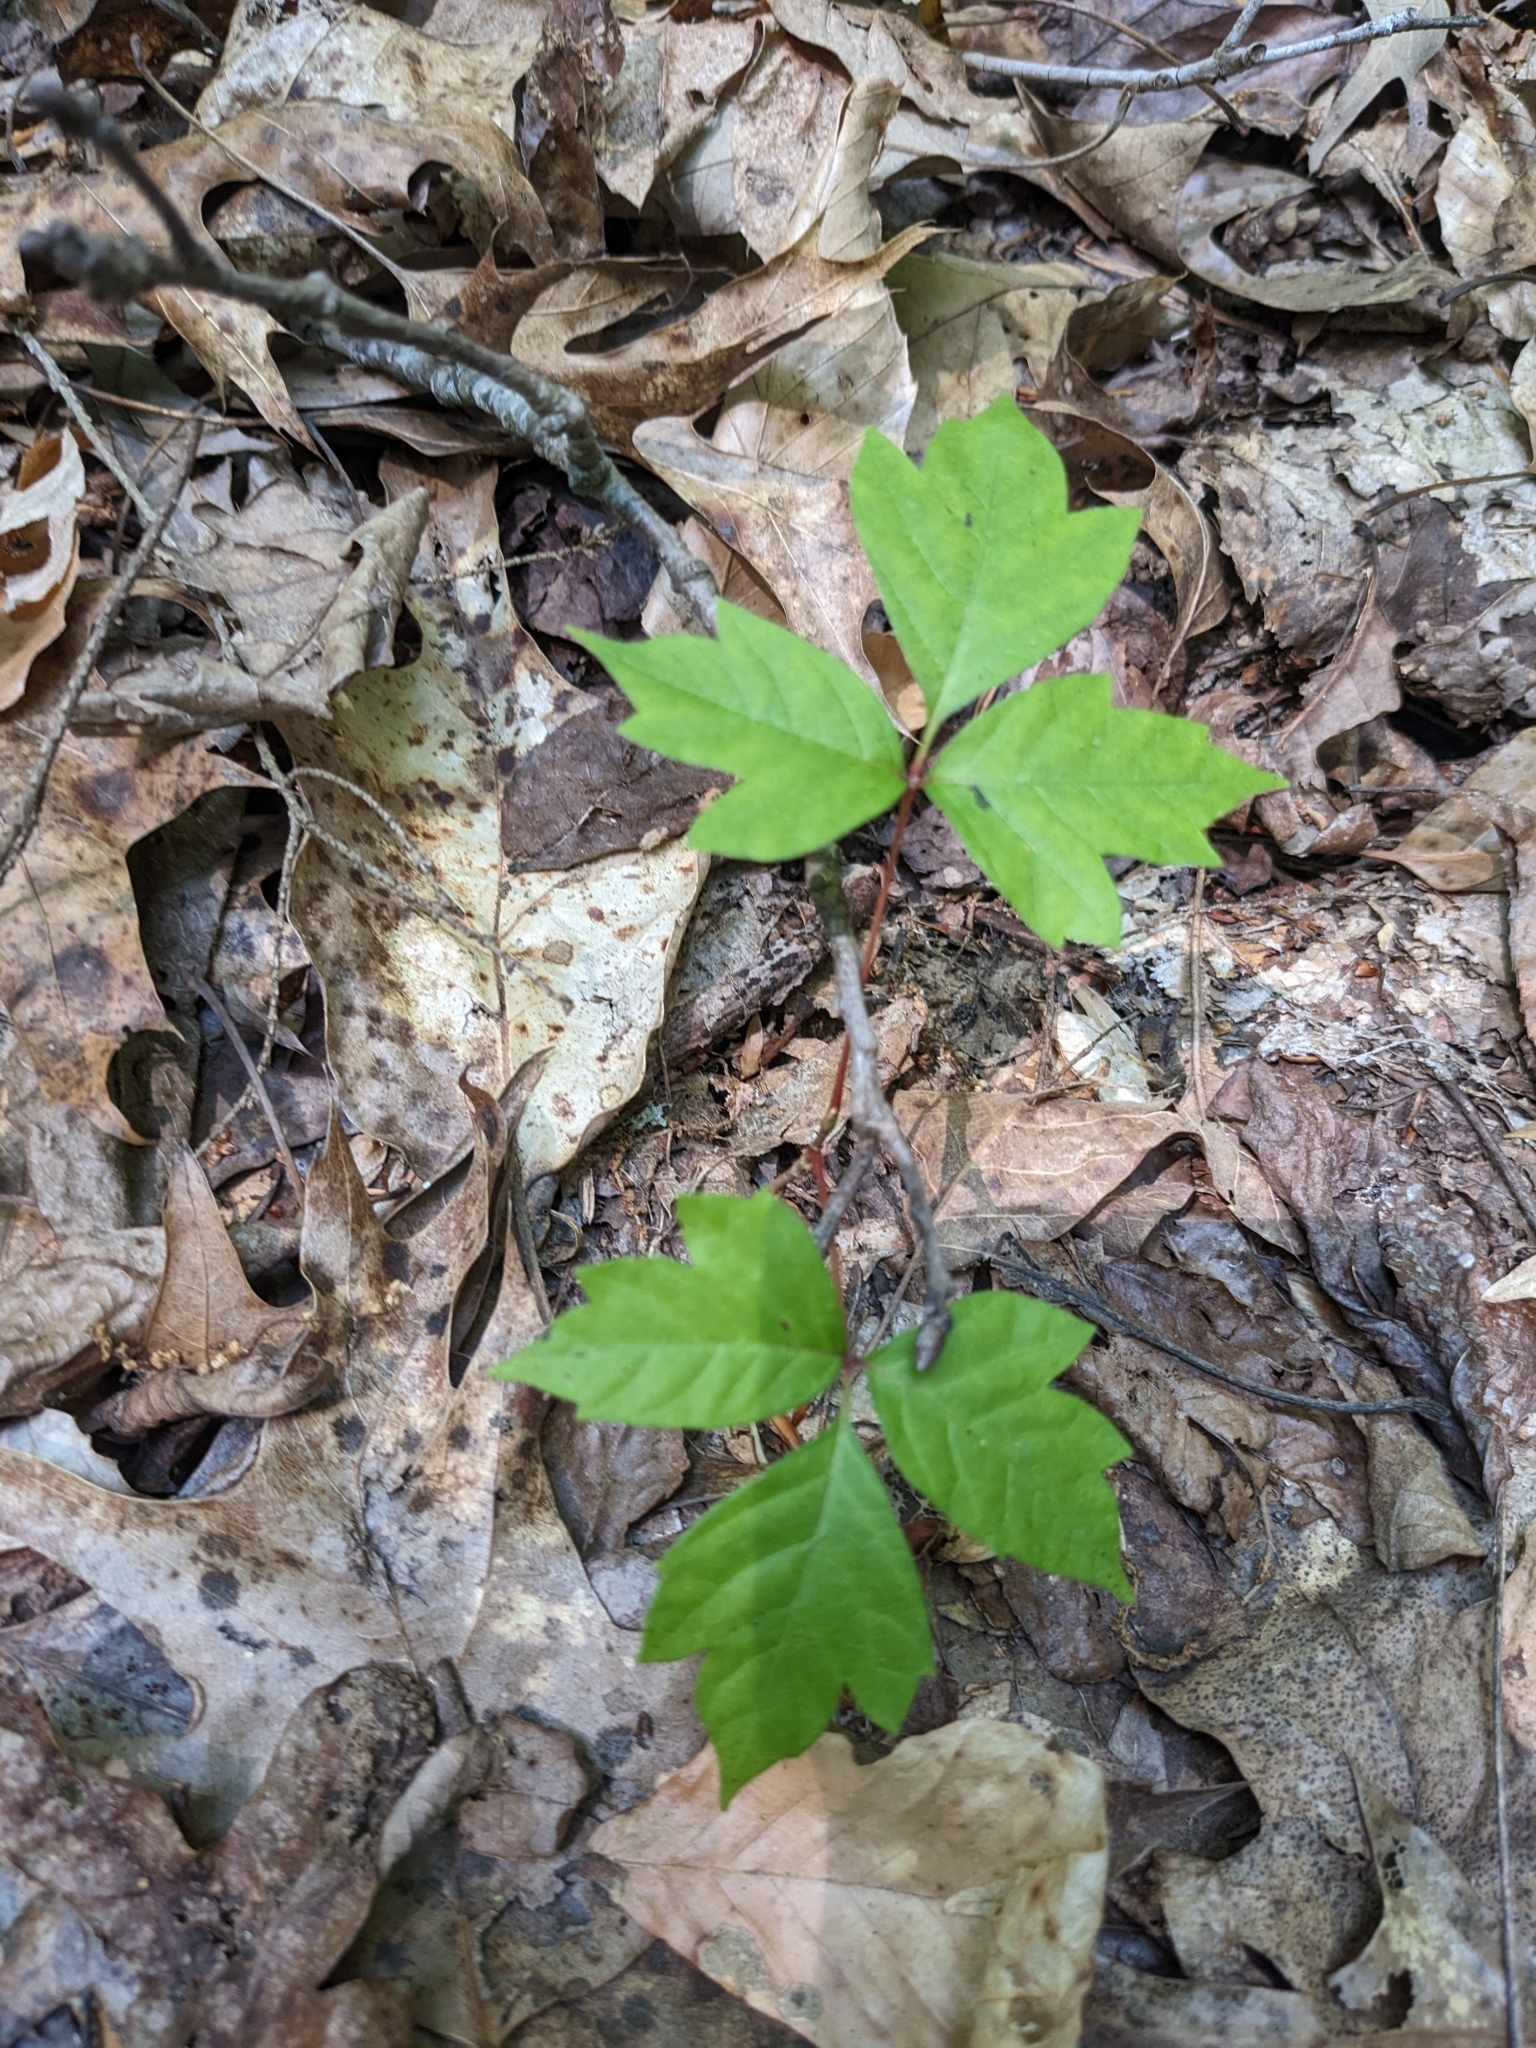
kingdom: Plantae
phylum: Tracheophyta
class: Magnoliopsida
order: Sapindales
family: Anacardiaceae
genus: Toxicodendron
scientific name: Toxicodendron radicans
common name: Poison ivy
